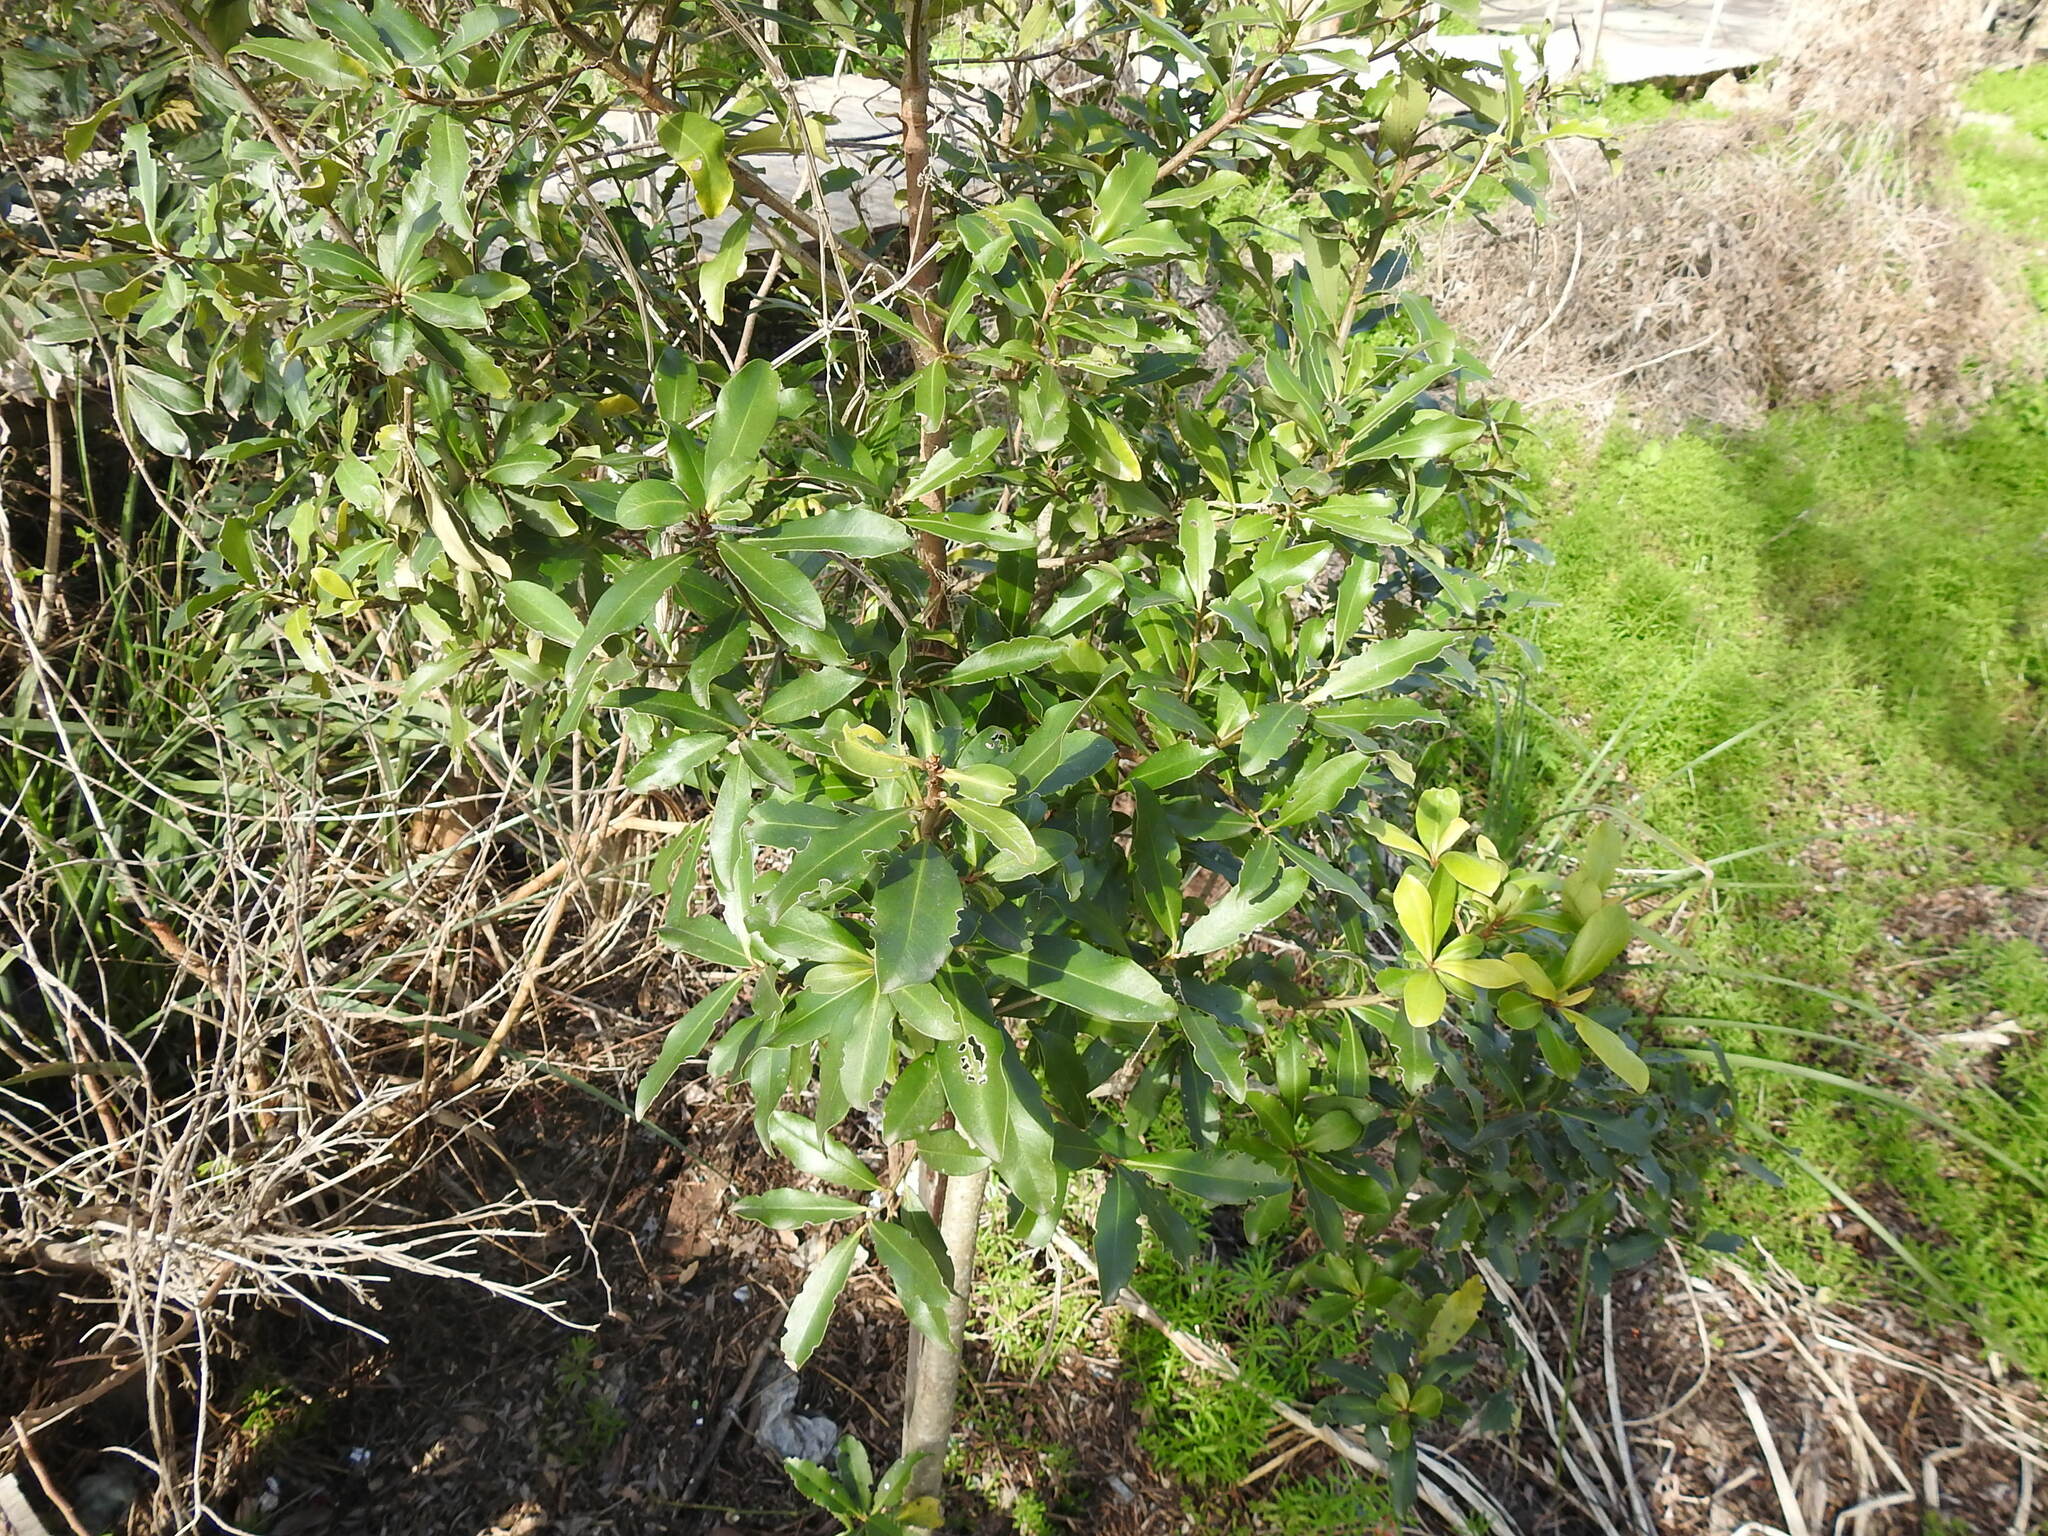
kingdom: Plantae
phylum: Tracheophyta
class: Magnoliopsida
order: Ericales
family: Primulaceae
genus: Myrsine
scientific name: Myrsine laetevirens
